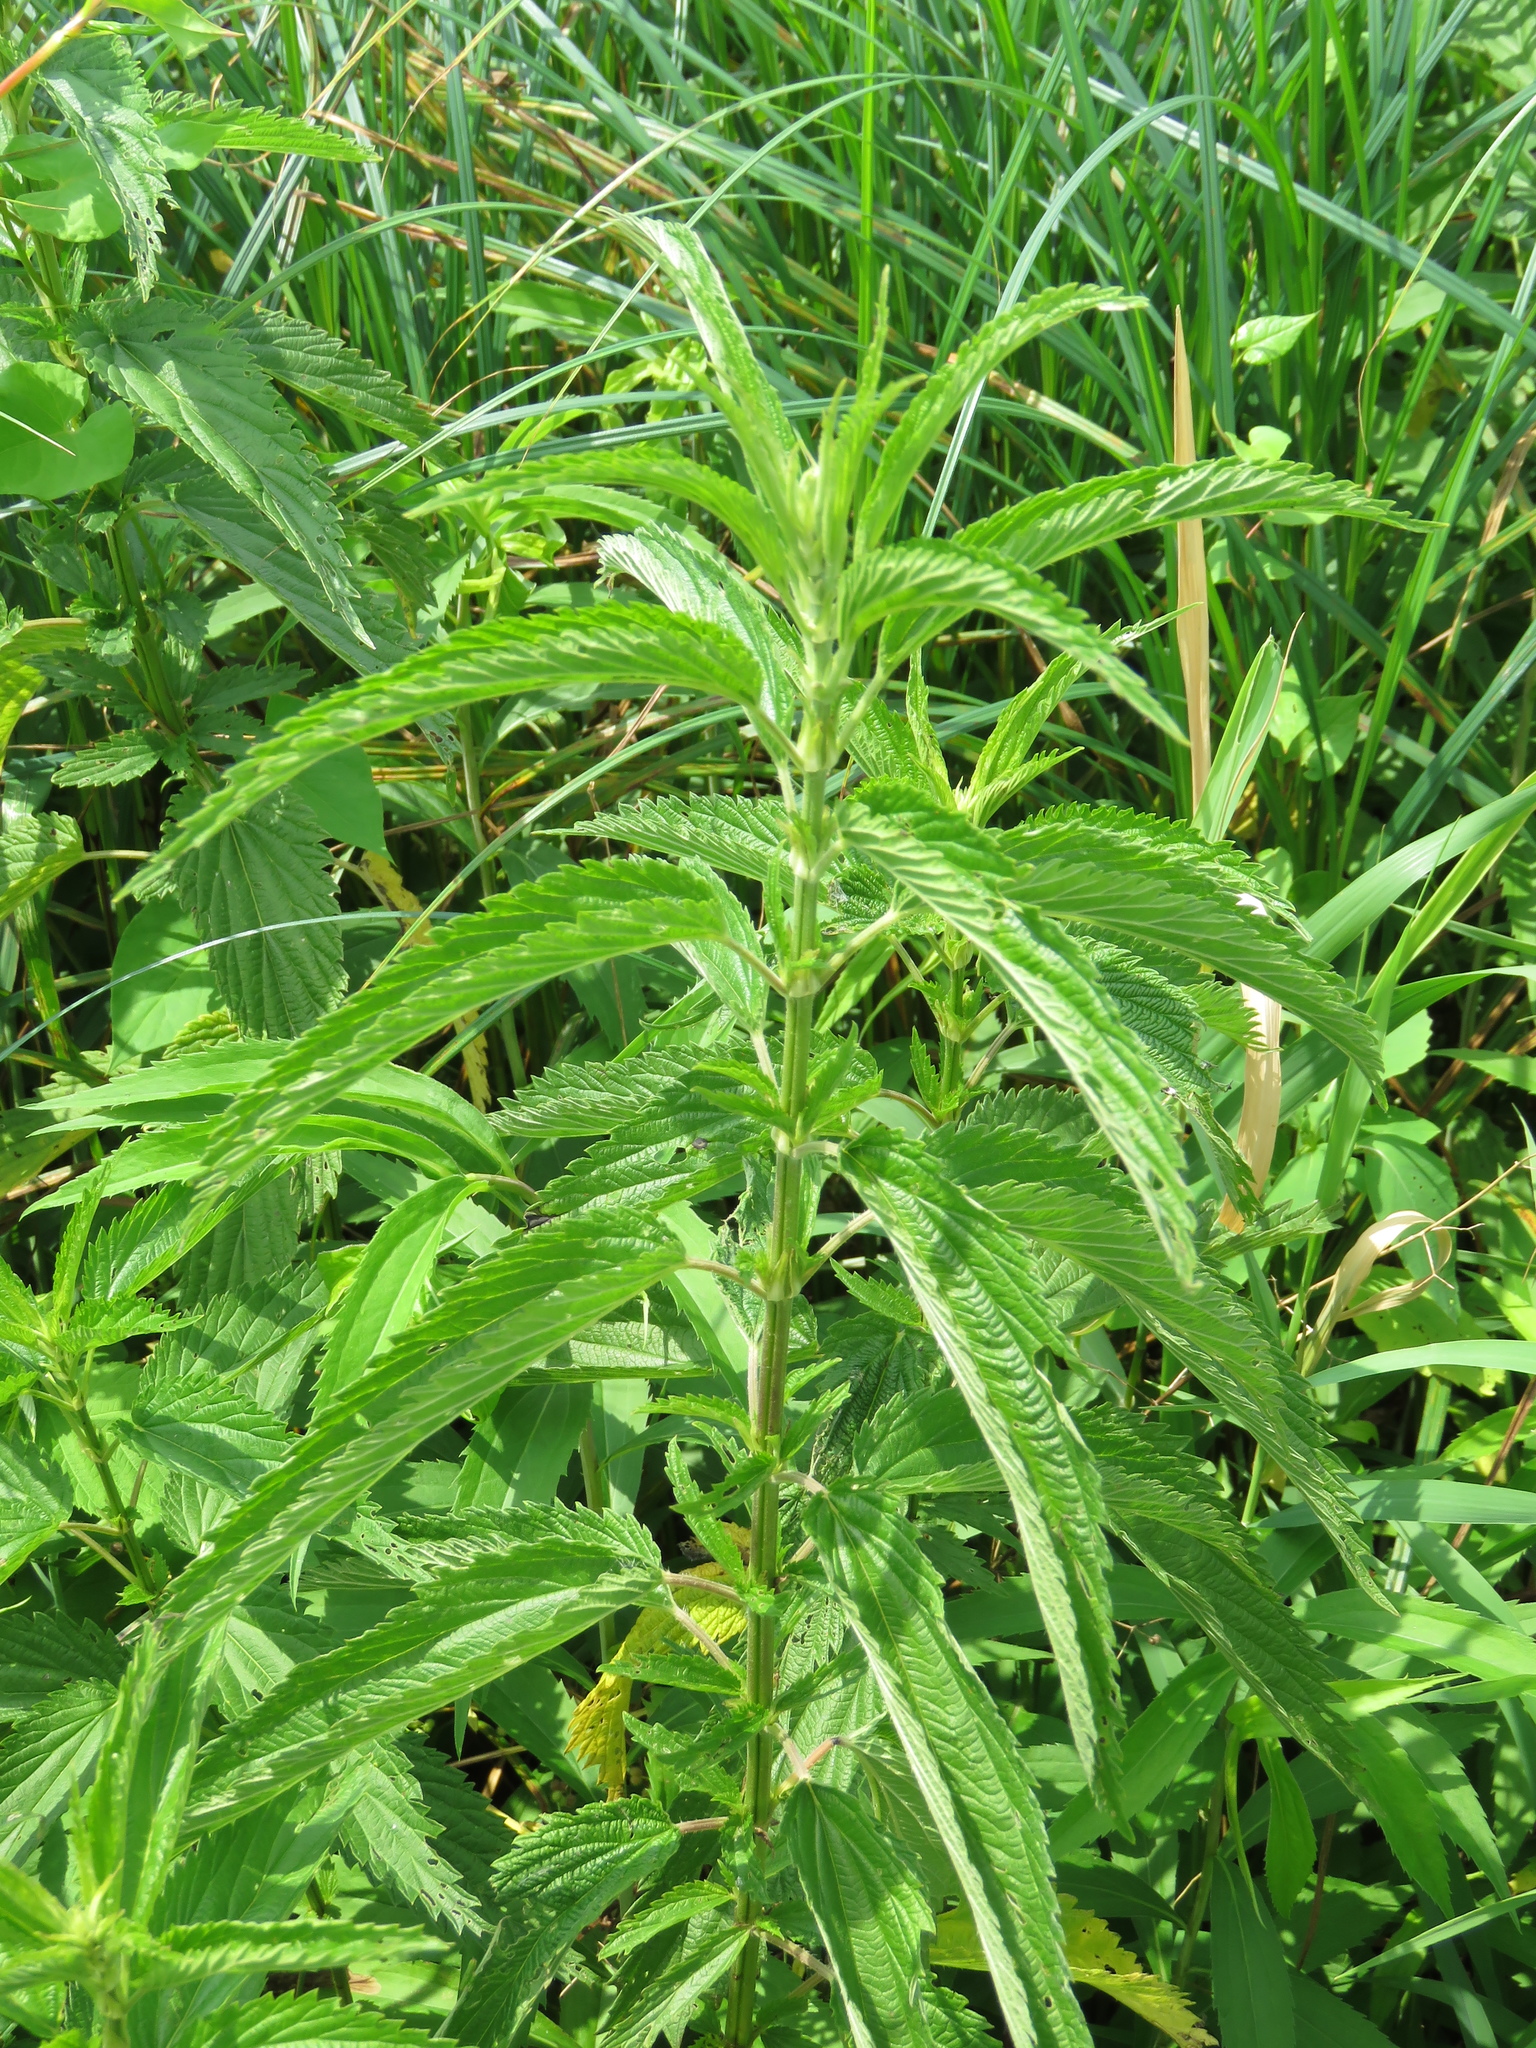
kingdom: Plantae
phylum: Tracheophyta
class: Magnoliopsida
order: Rosales
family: Urticaceae
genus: Urtica
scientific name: Urtica dioica
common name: Common nettle
